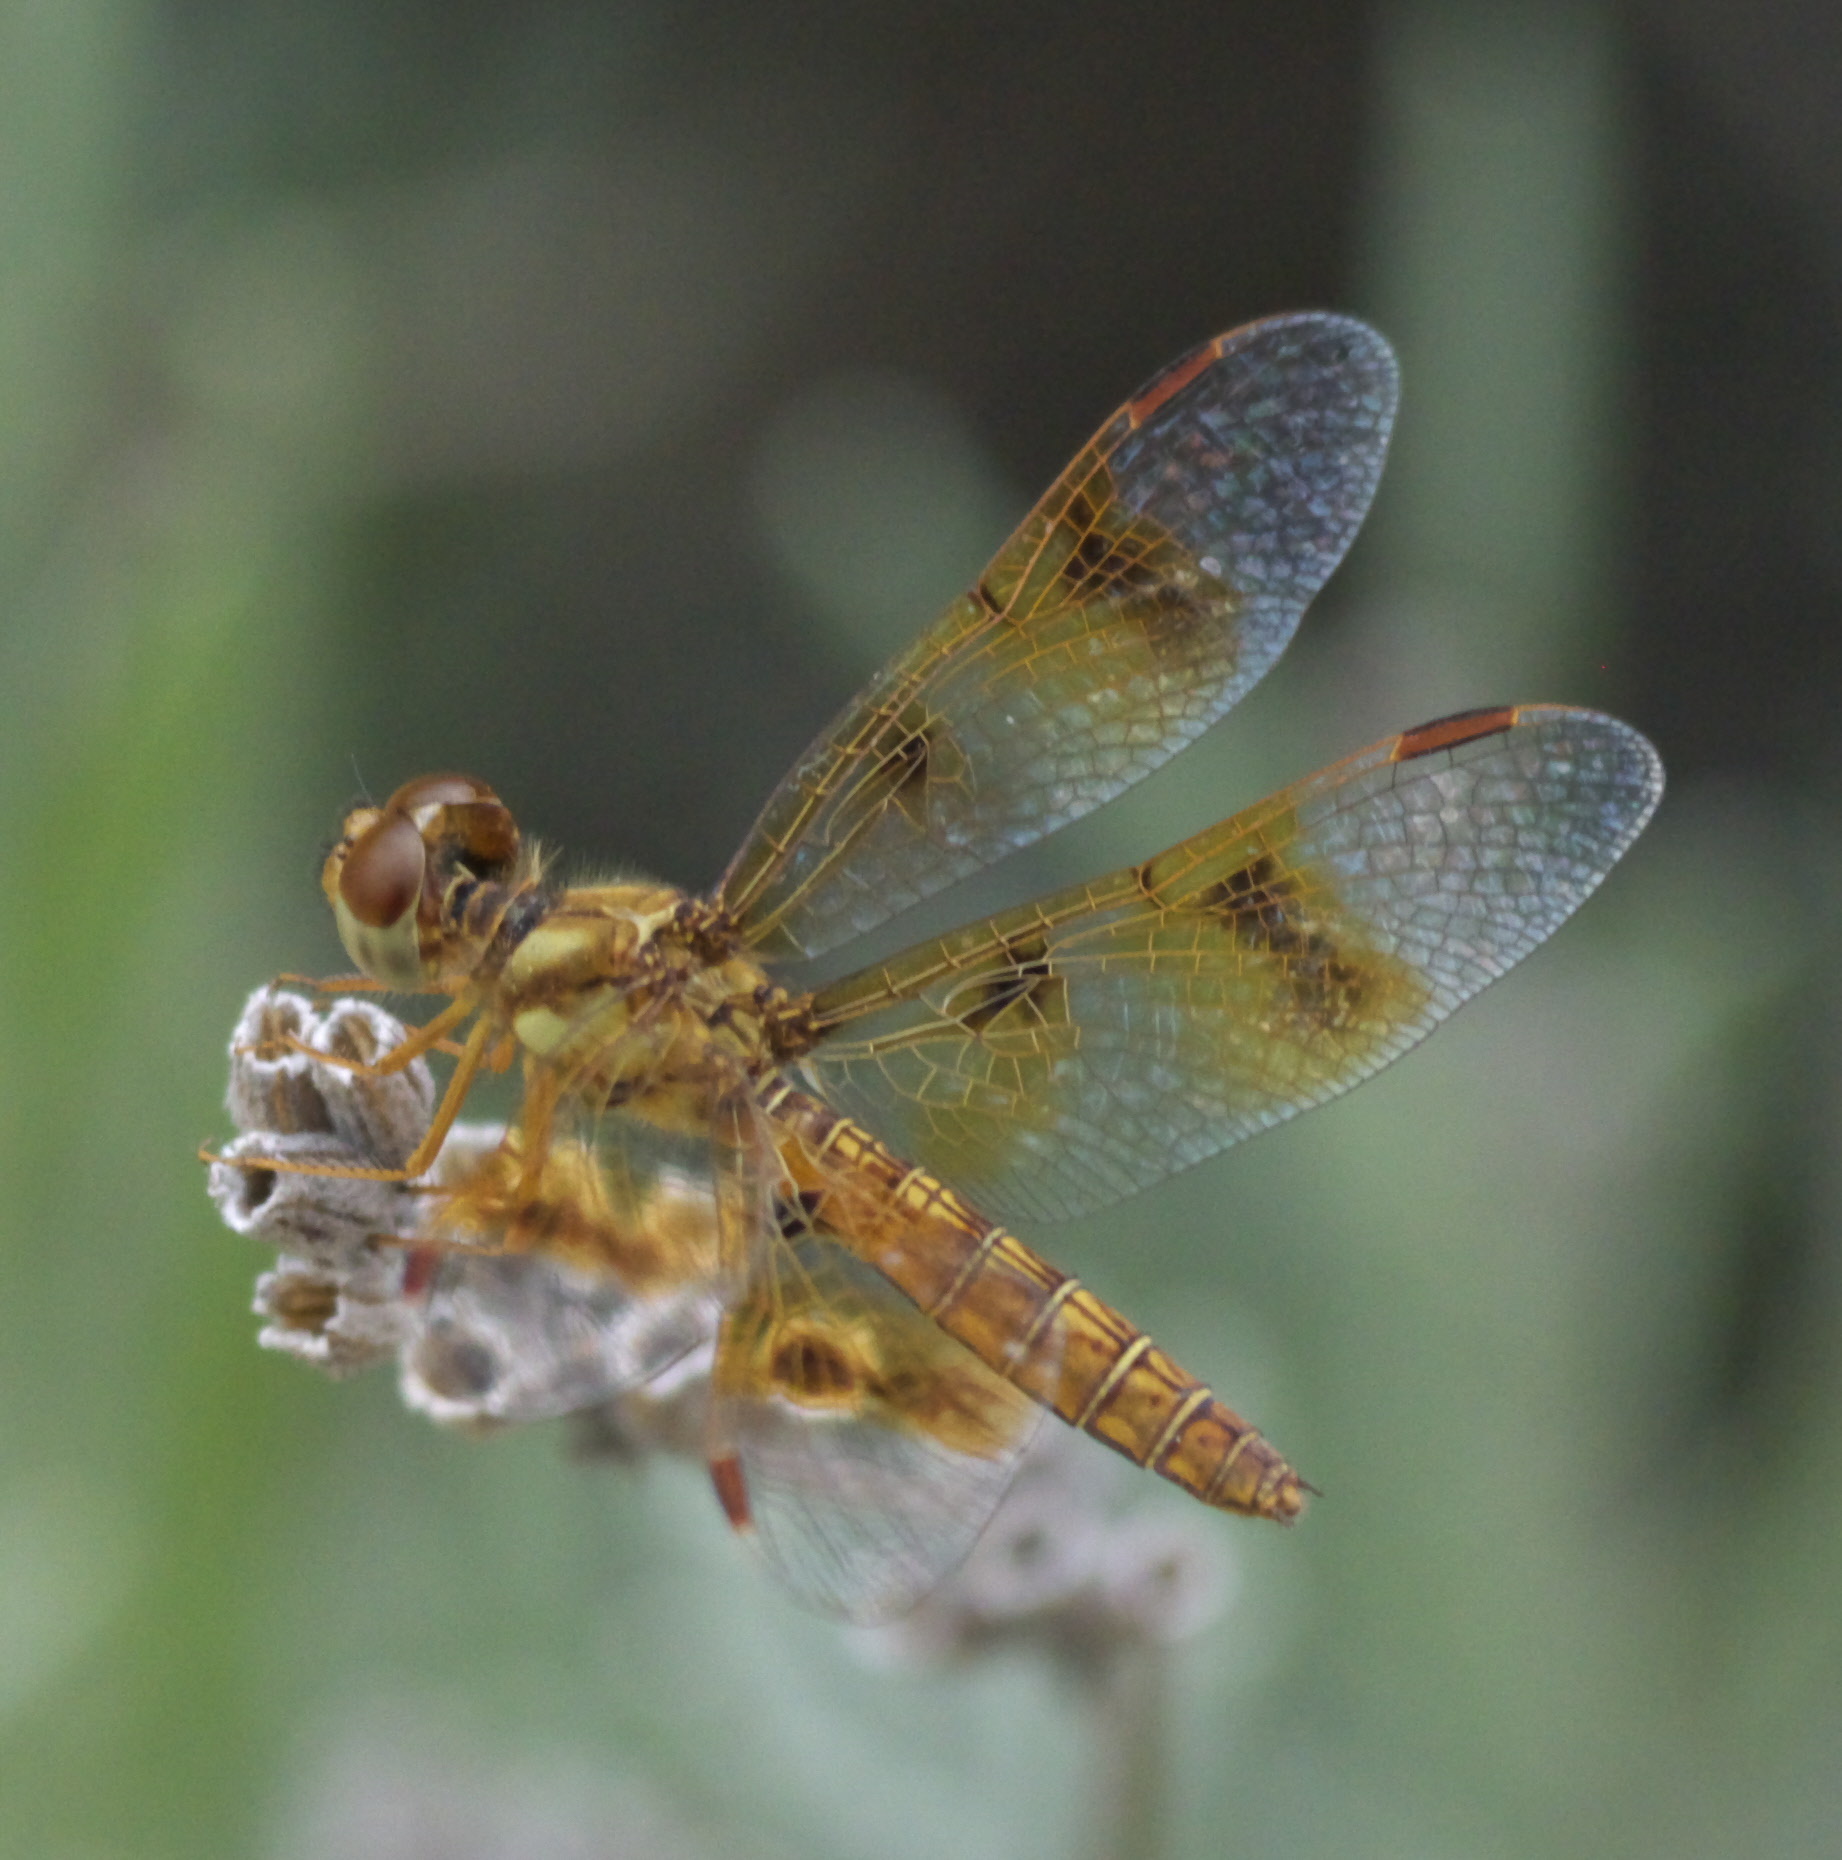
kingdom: Animalia
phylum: Arthropoda
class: Insecta
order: Odonata
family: Libellulidae
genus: Perithemis
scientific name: Perithemis tenera
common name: Eastern amberwing
